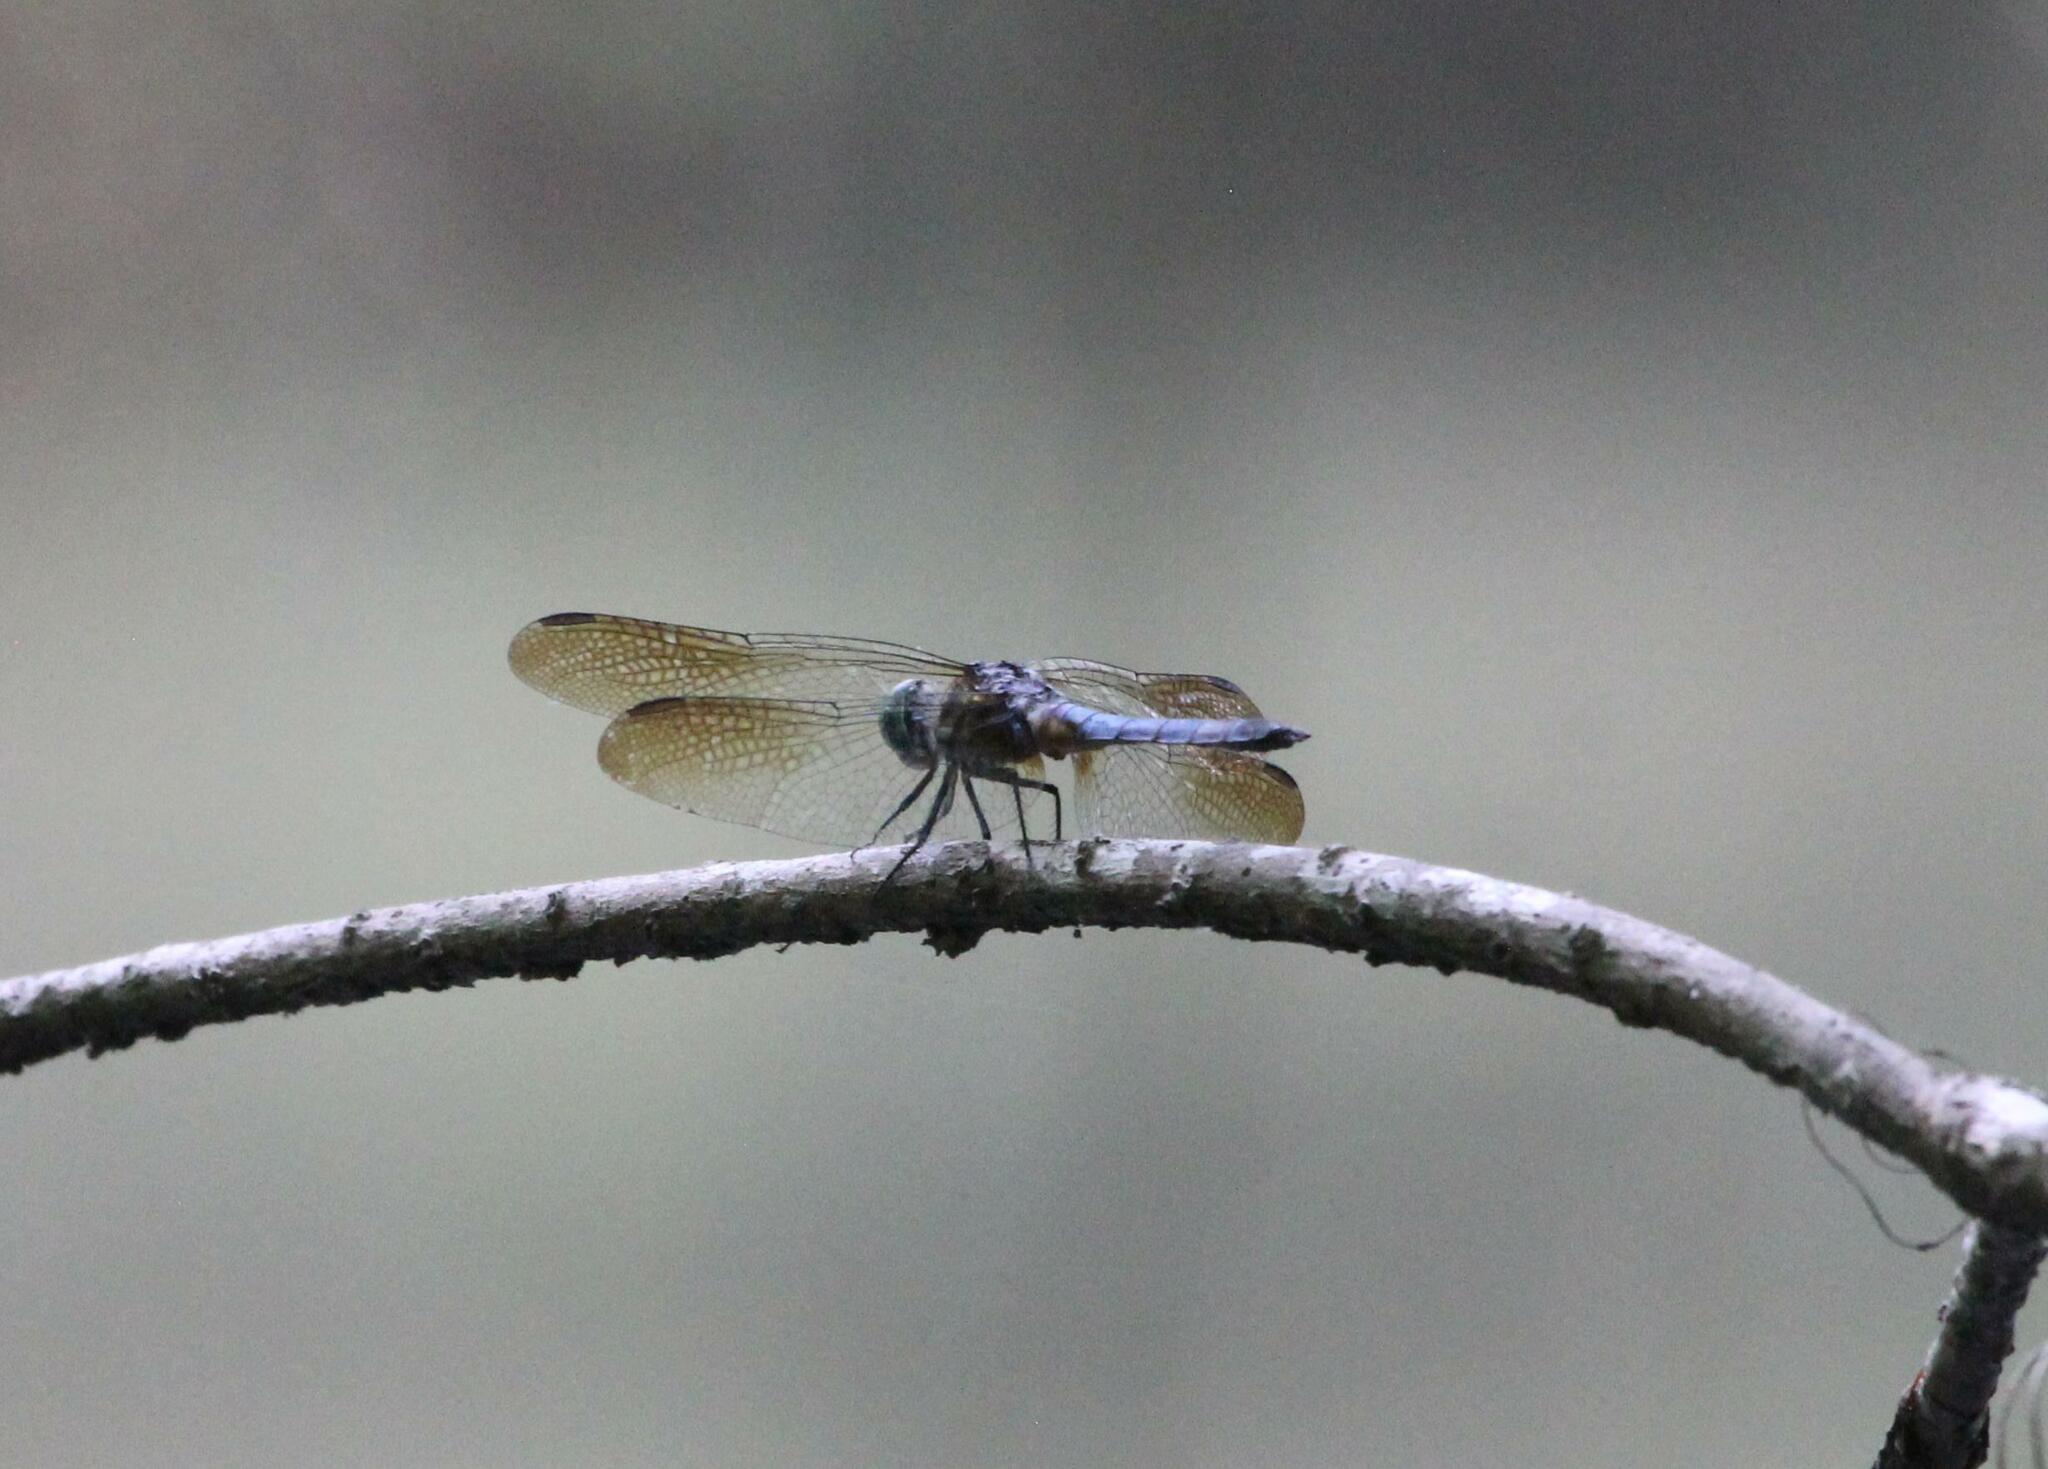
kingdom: Animalia
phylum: Arthropoda
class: Insecta
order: Odonata
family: Libellulidae
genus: Pachydiplax
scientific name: Pachydiplax longipennis
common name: Blue dasher
